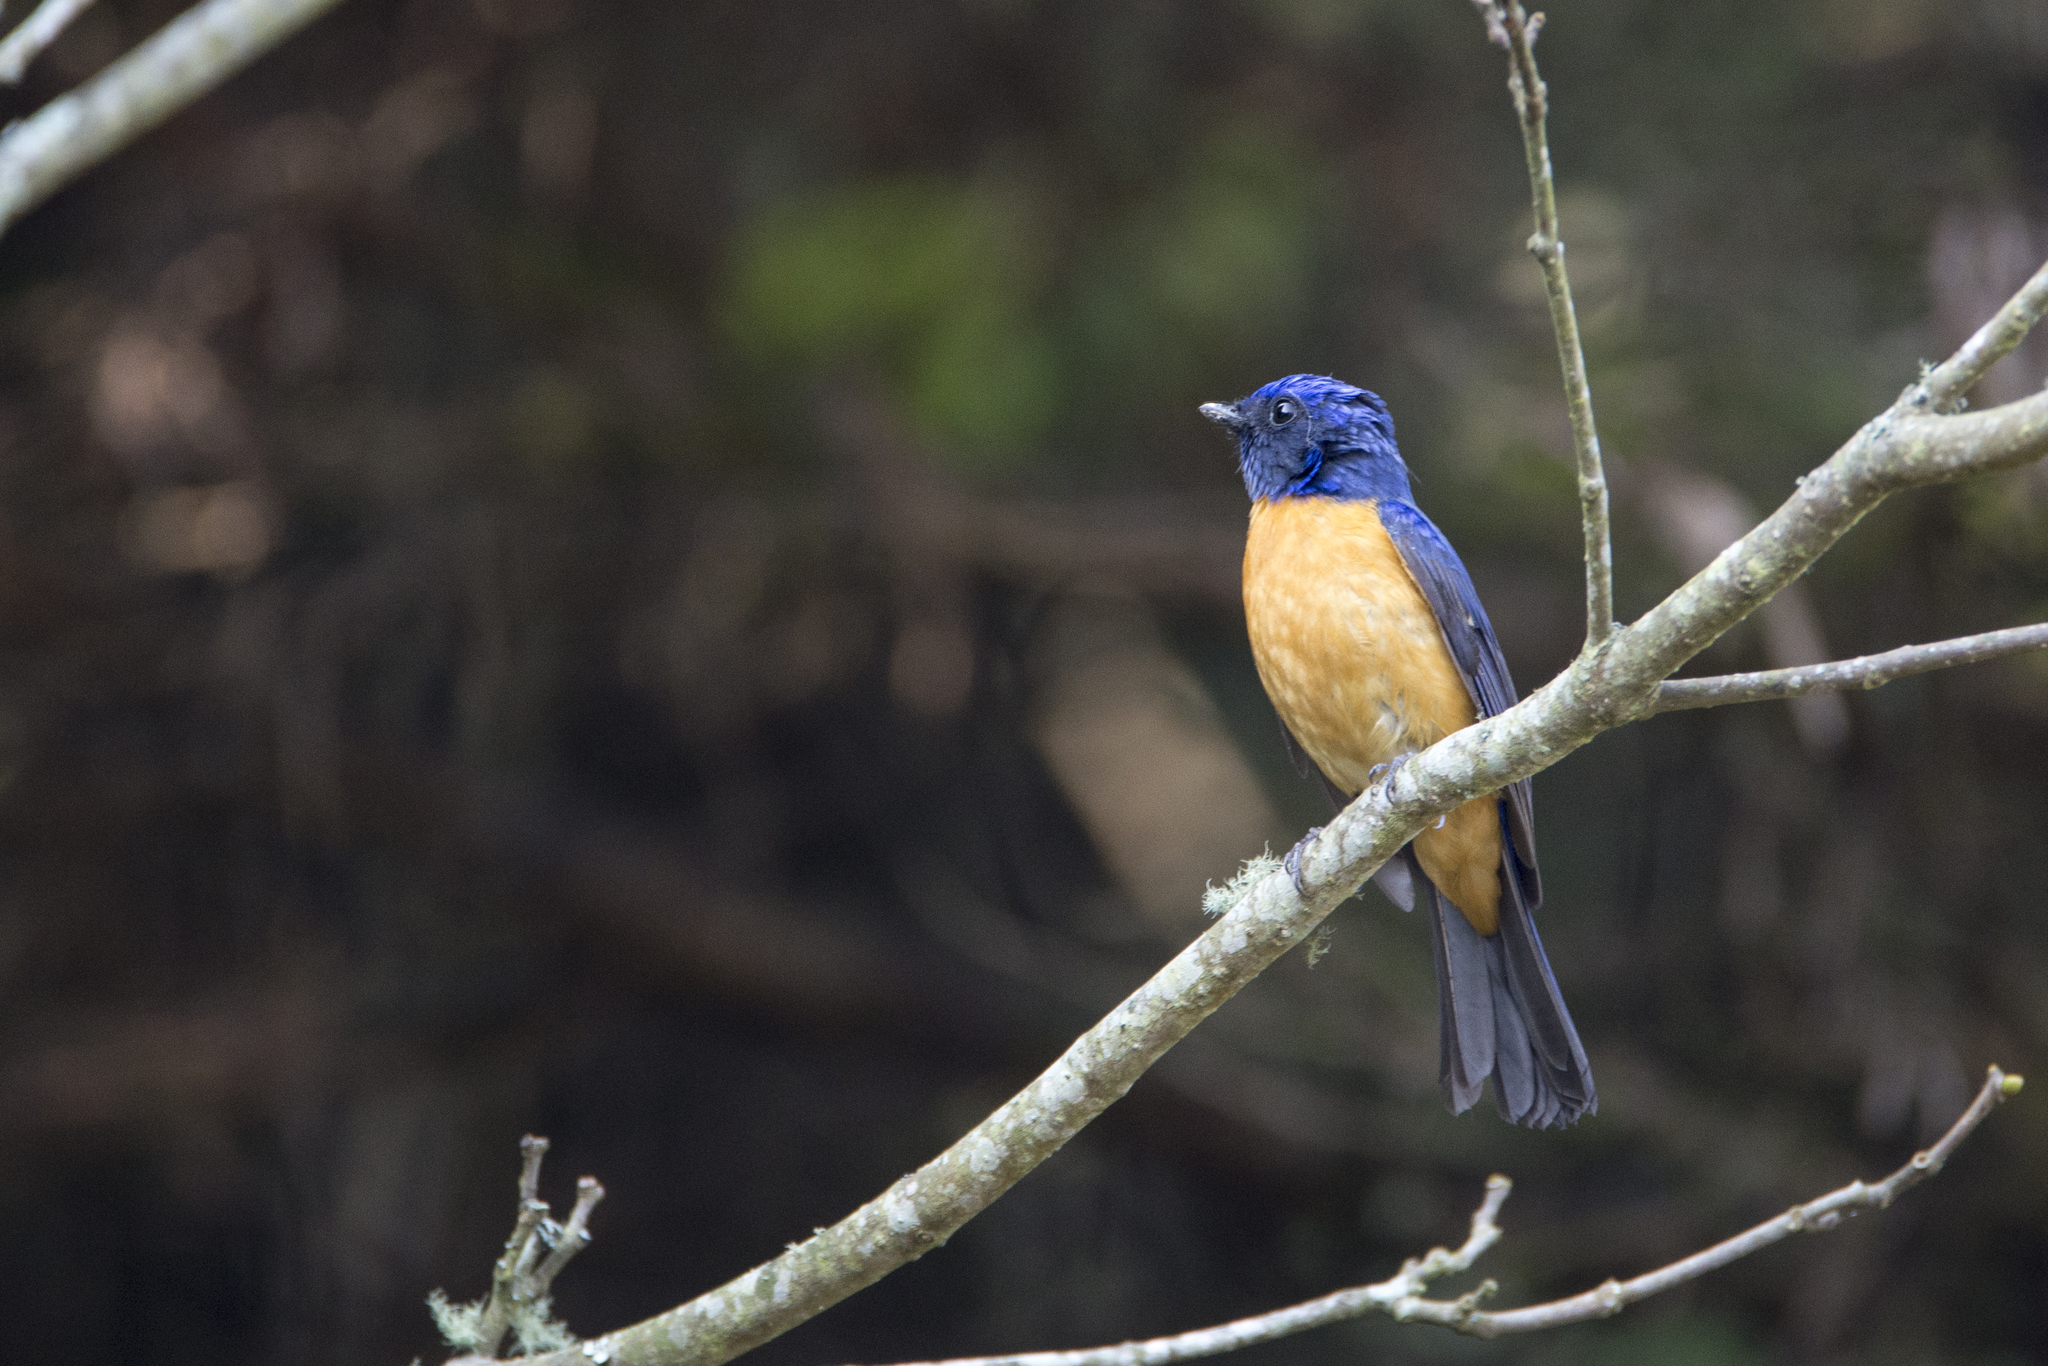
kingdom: Animalia
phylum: Chordata
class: Aves
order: Passeriformes
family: Muscicapidae
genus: Niltava
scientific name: Niltava vivida
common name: Vivid niltava
